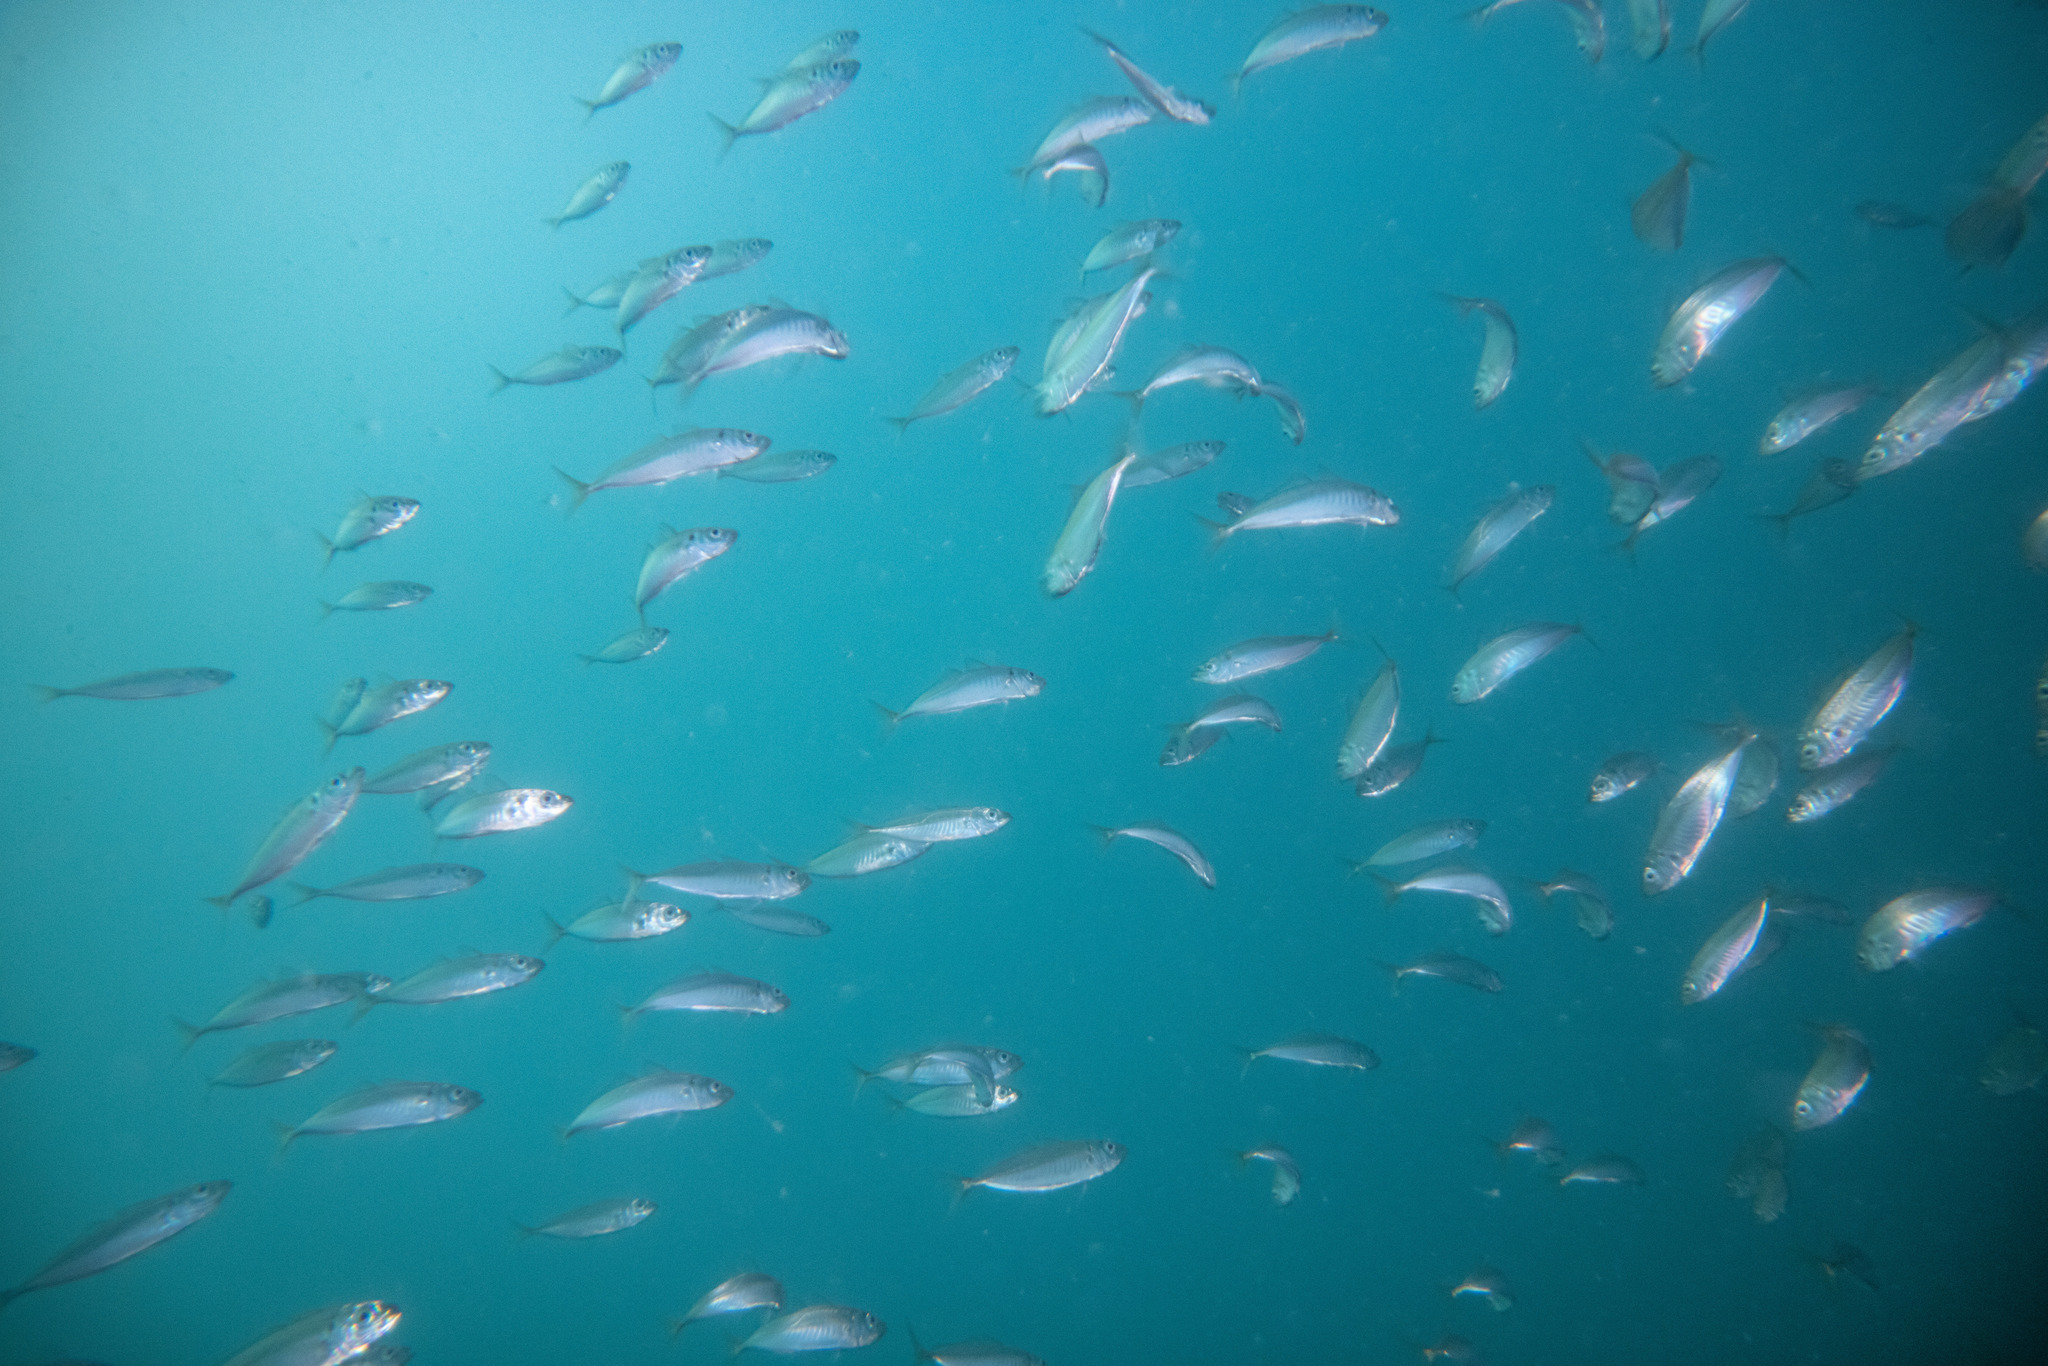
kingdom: Animalia
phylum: Chordata
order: Perciformes
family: Carangidae
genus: Trachurus
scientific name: Trachurus novaezelandiae
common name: Yellowtail horse mackerel
